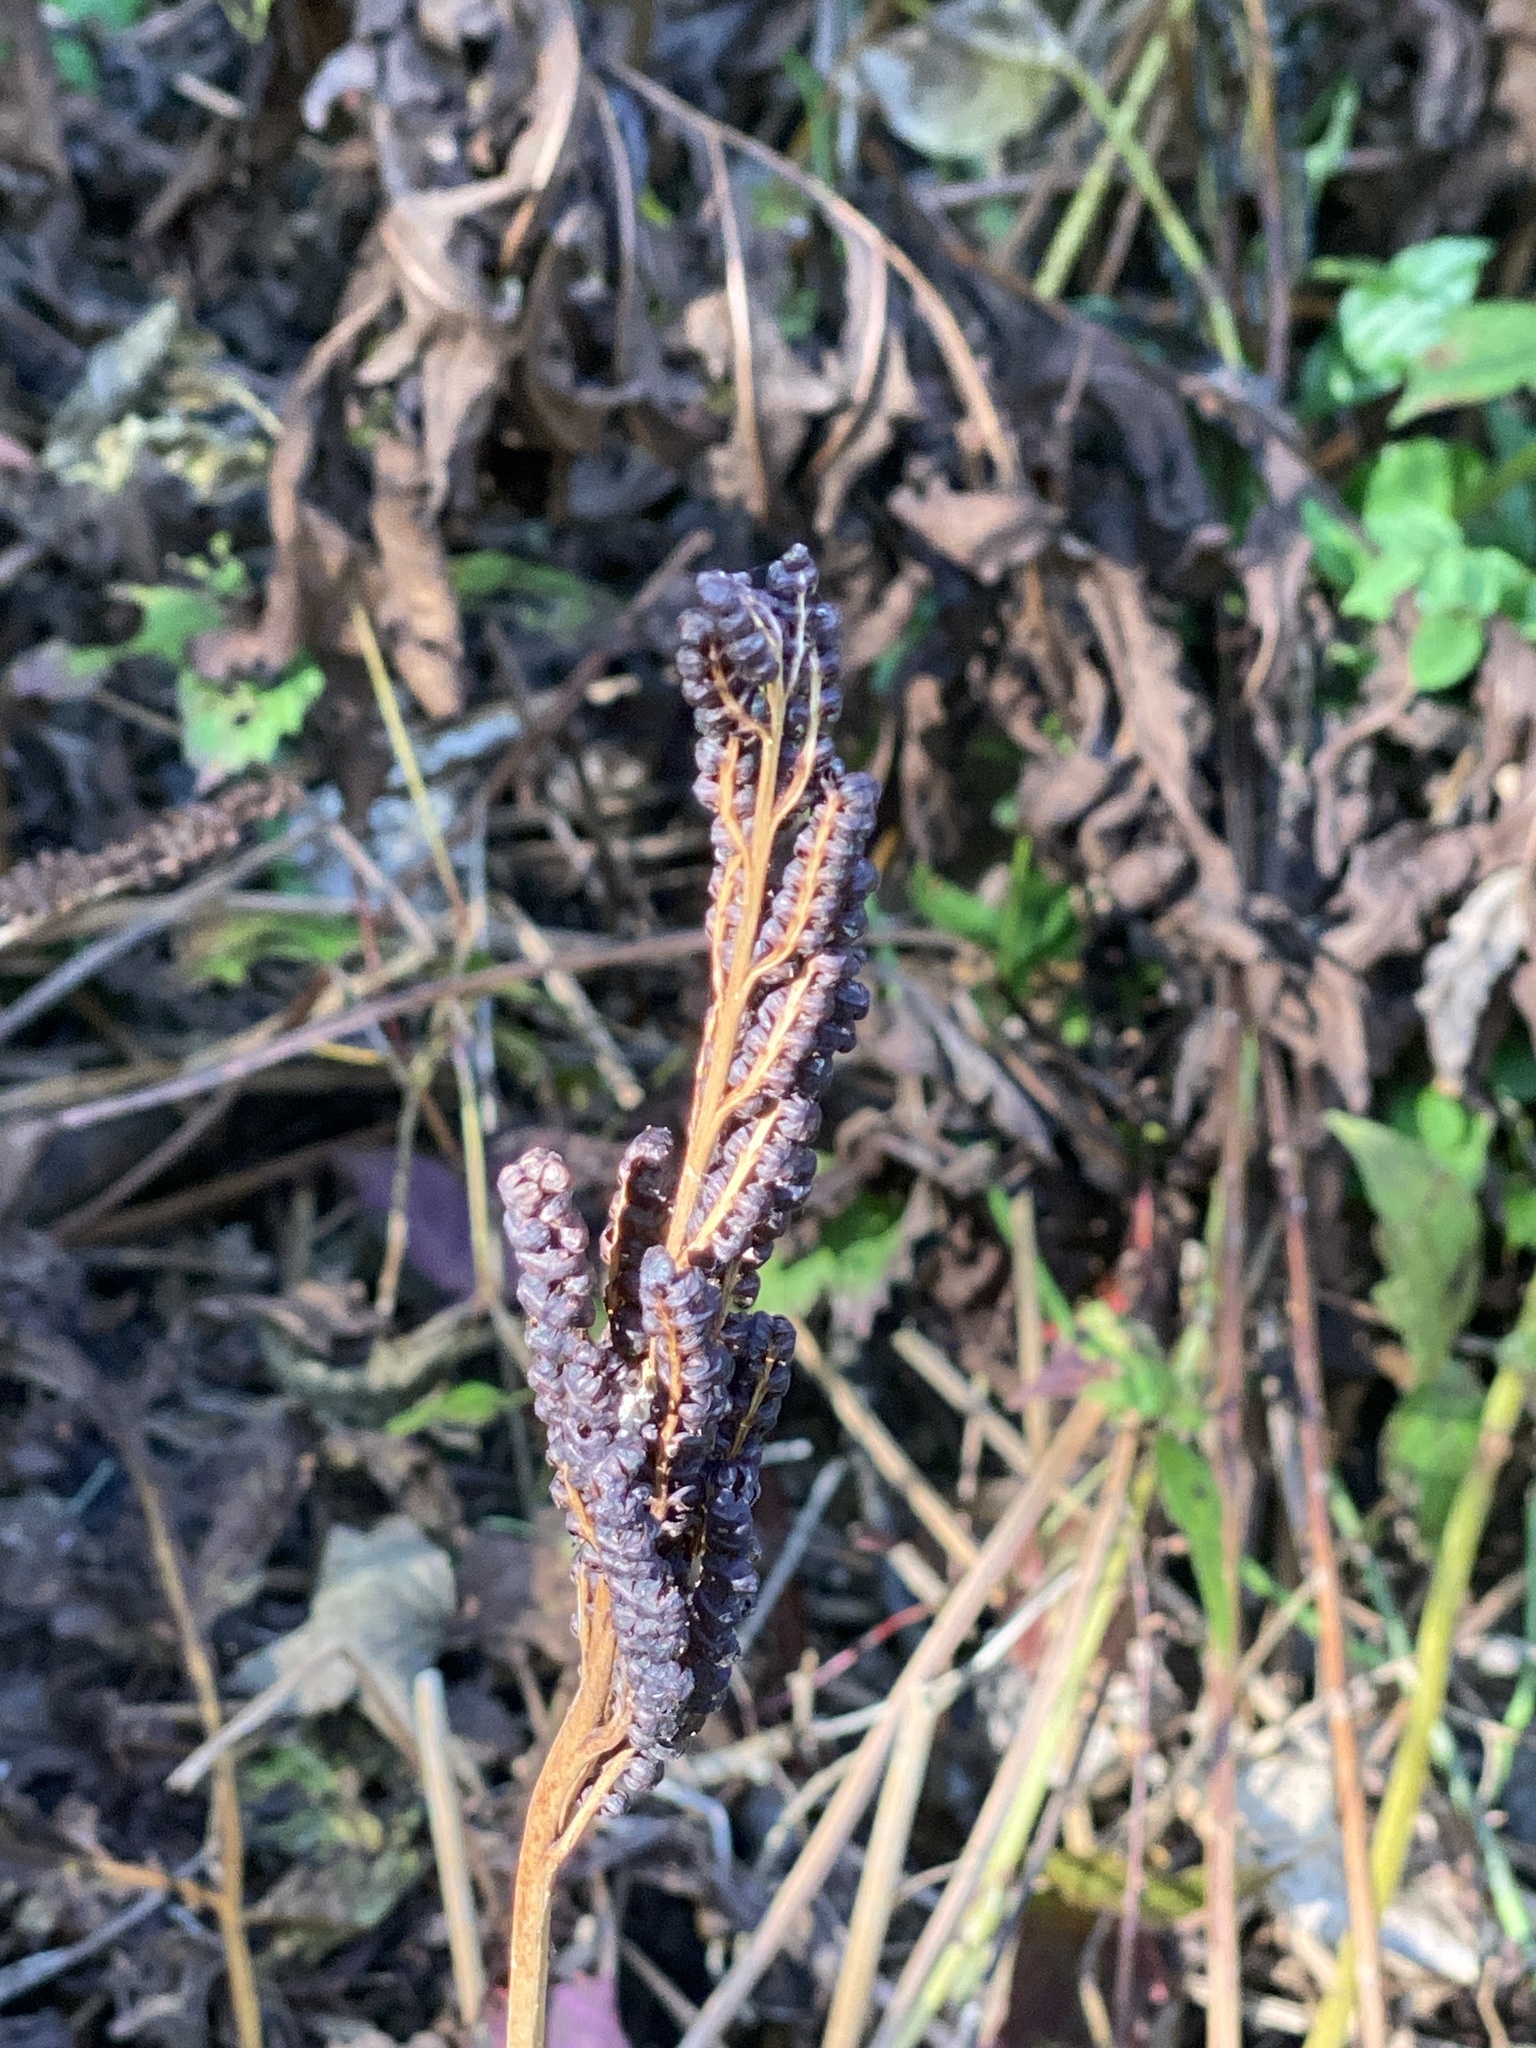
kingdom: Plantae
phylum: Tracheophyta
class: Polypodiopsida
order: Polypodiales
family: Onocleaceae
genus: Onoclea
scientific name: Onoclea sensibilis
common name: Sensitive fern
